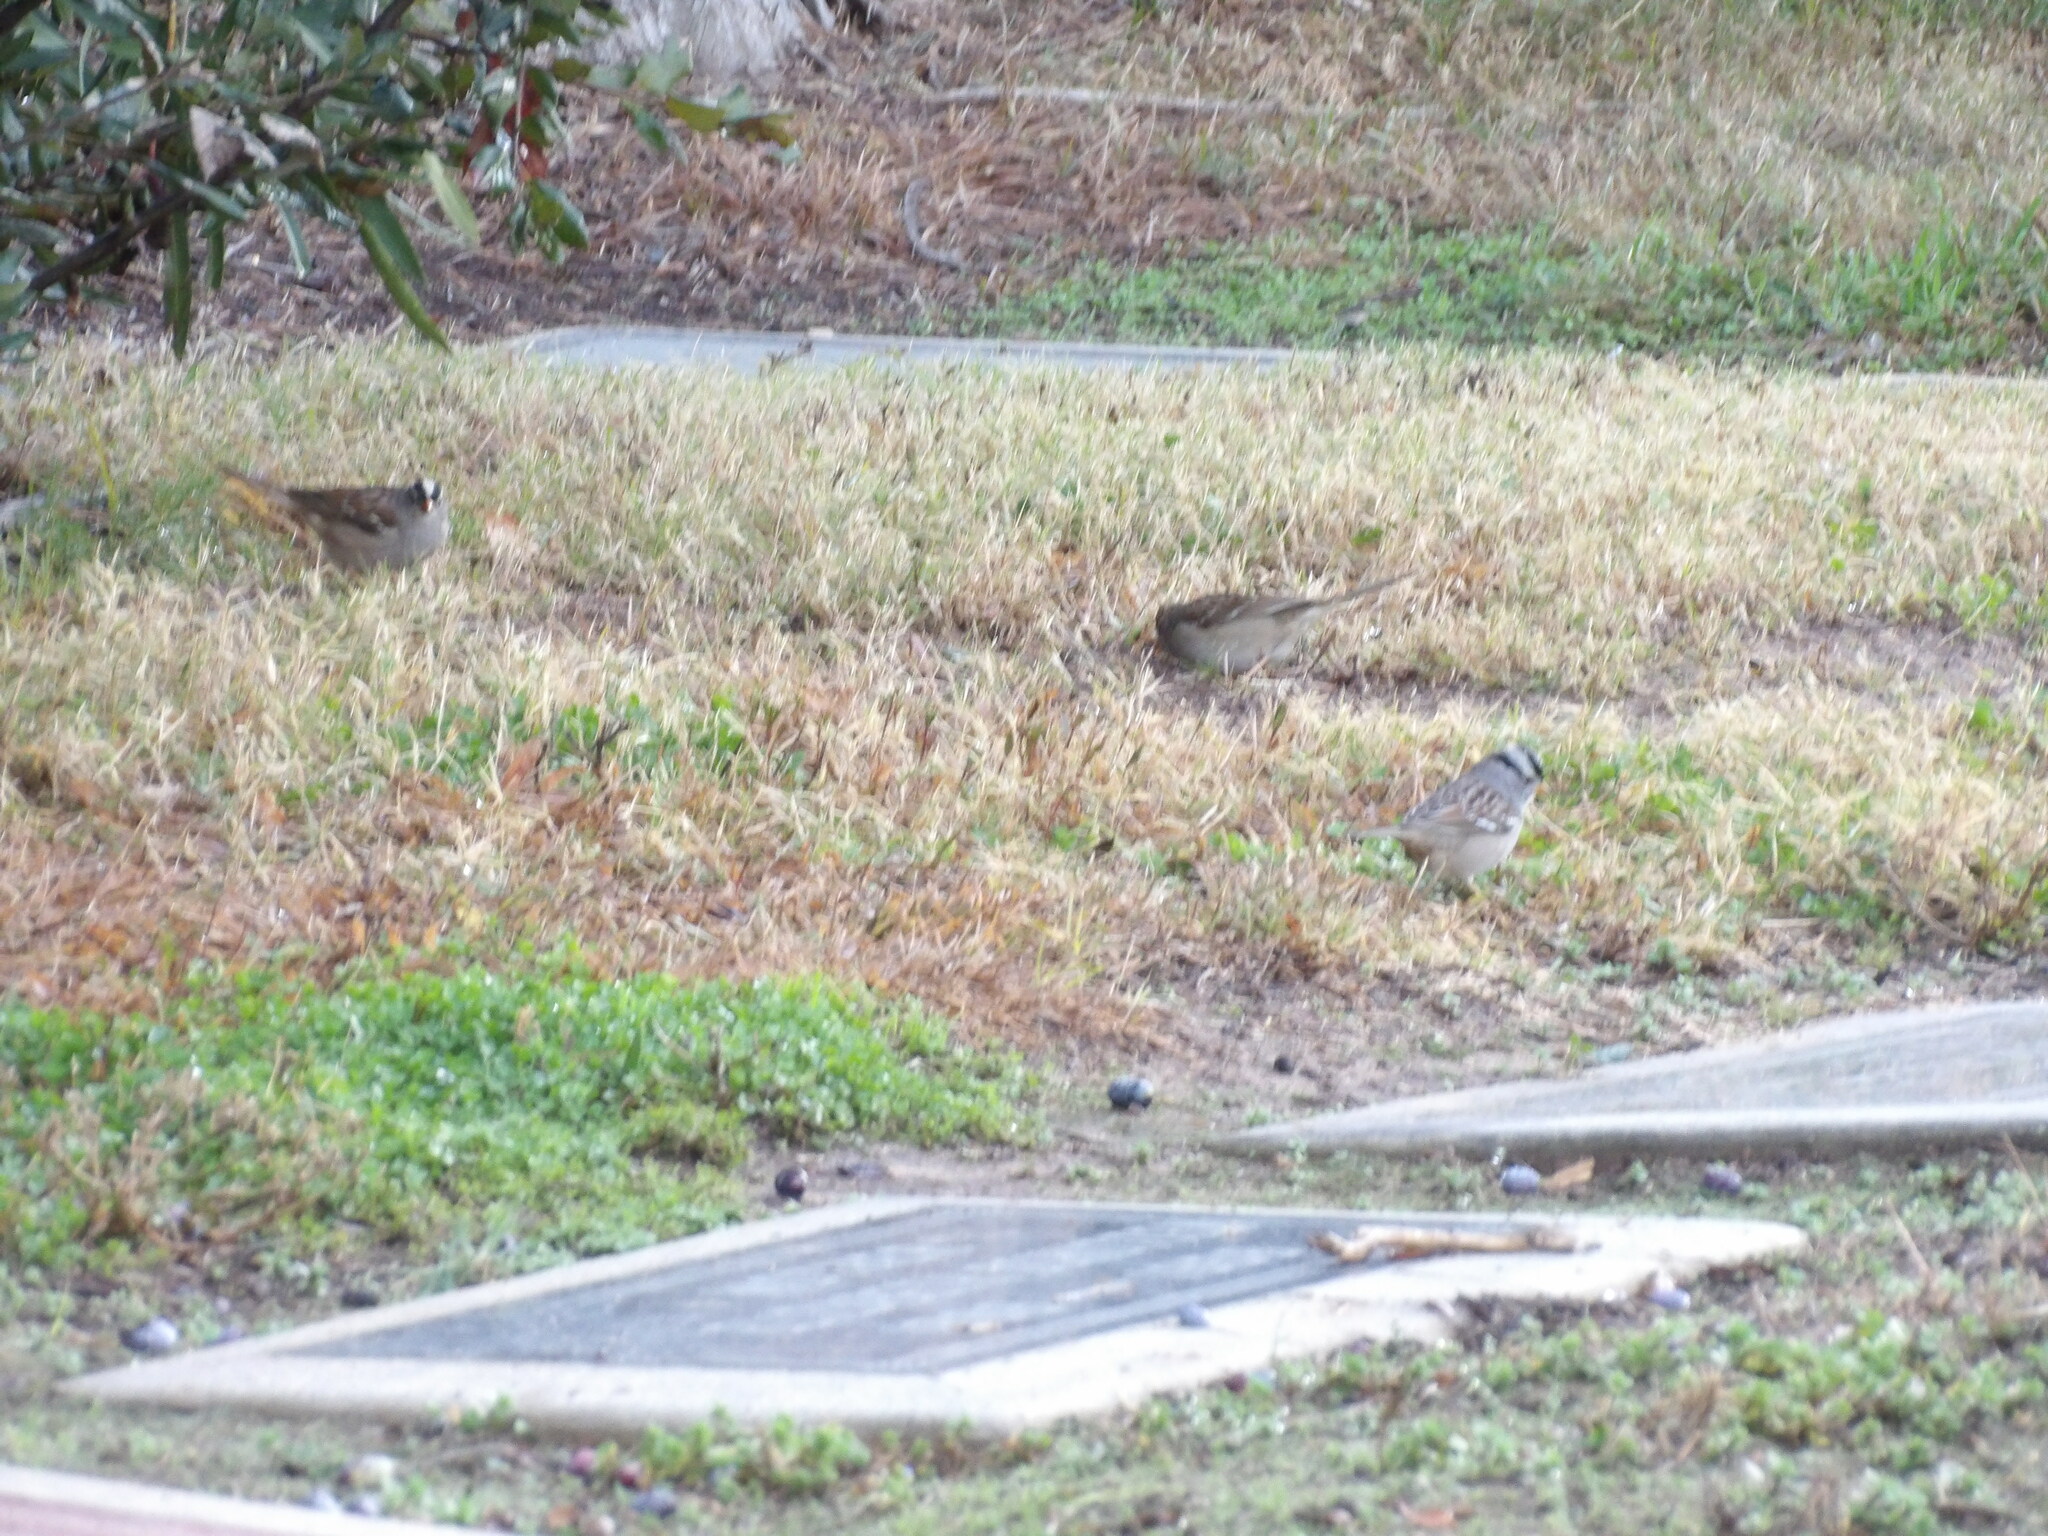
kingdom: Animalia
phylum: Chordata
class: Aves
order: Passeriformes
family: Passerellidae
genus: Zonotrichia
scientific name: Zonotrichia leucophrys
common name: White-crowned sparrow
